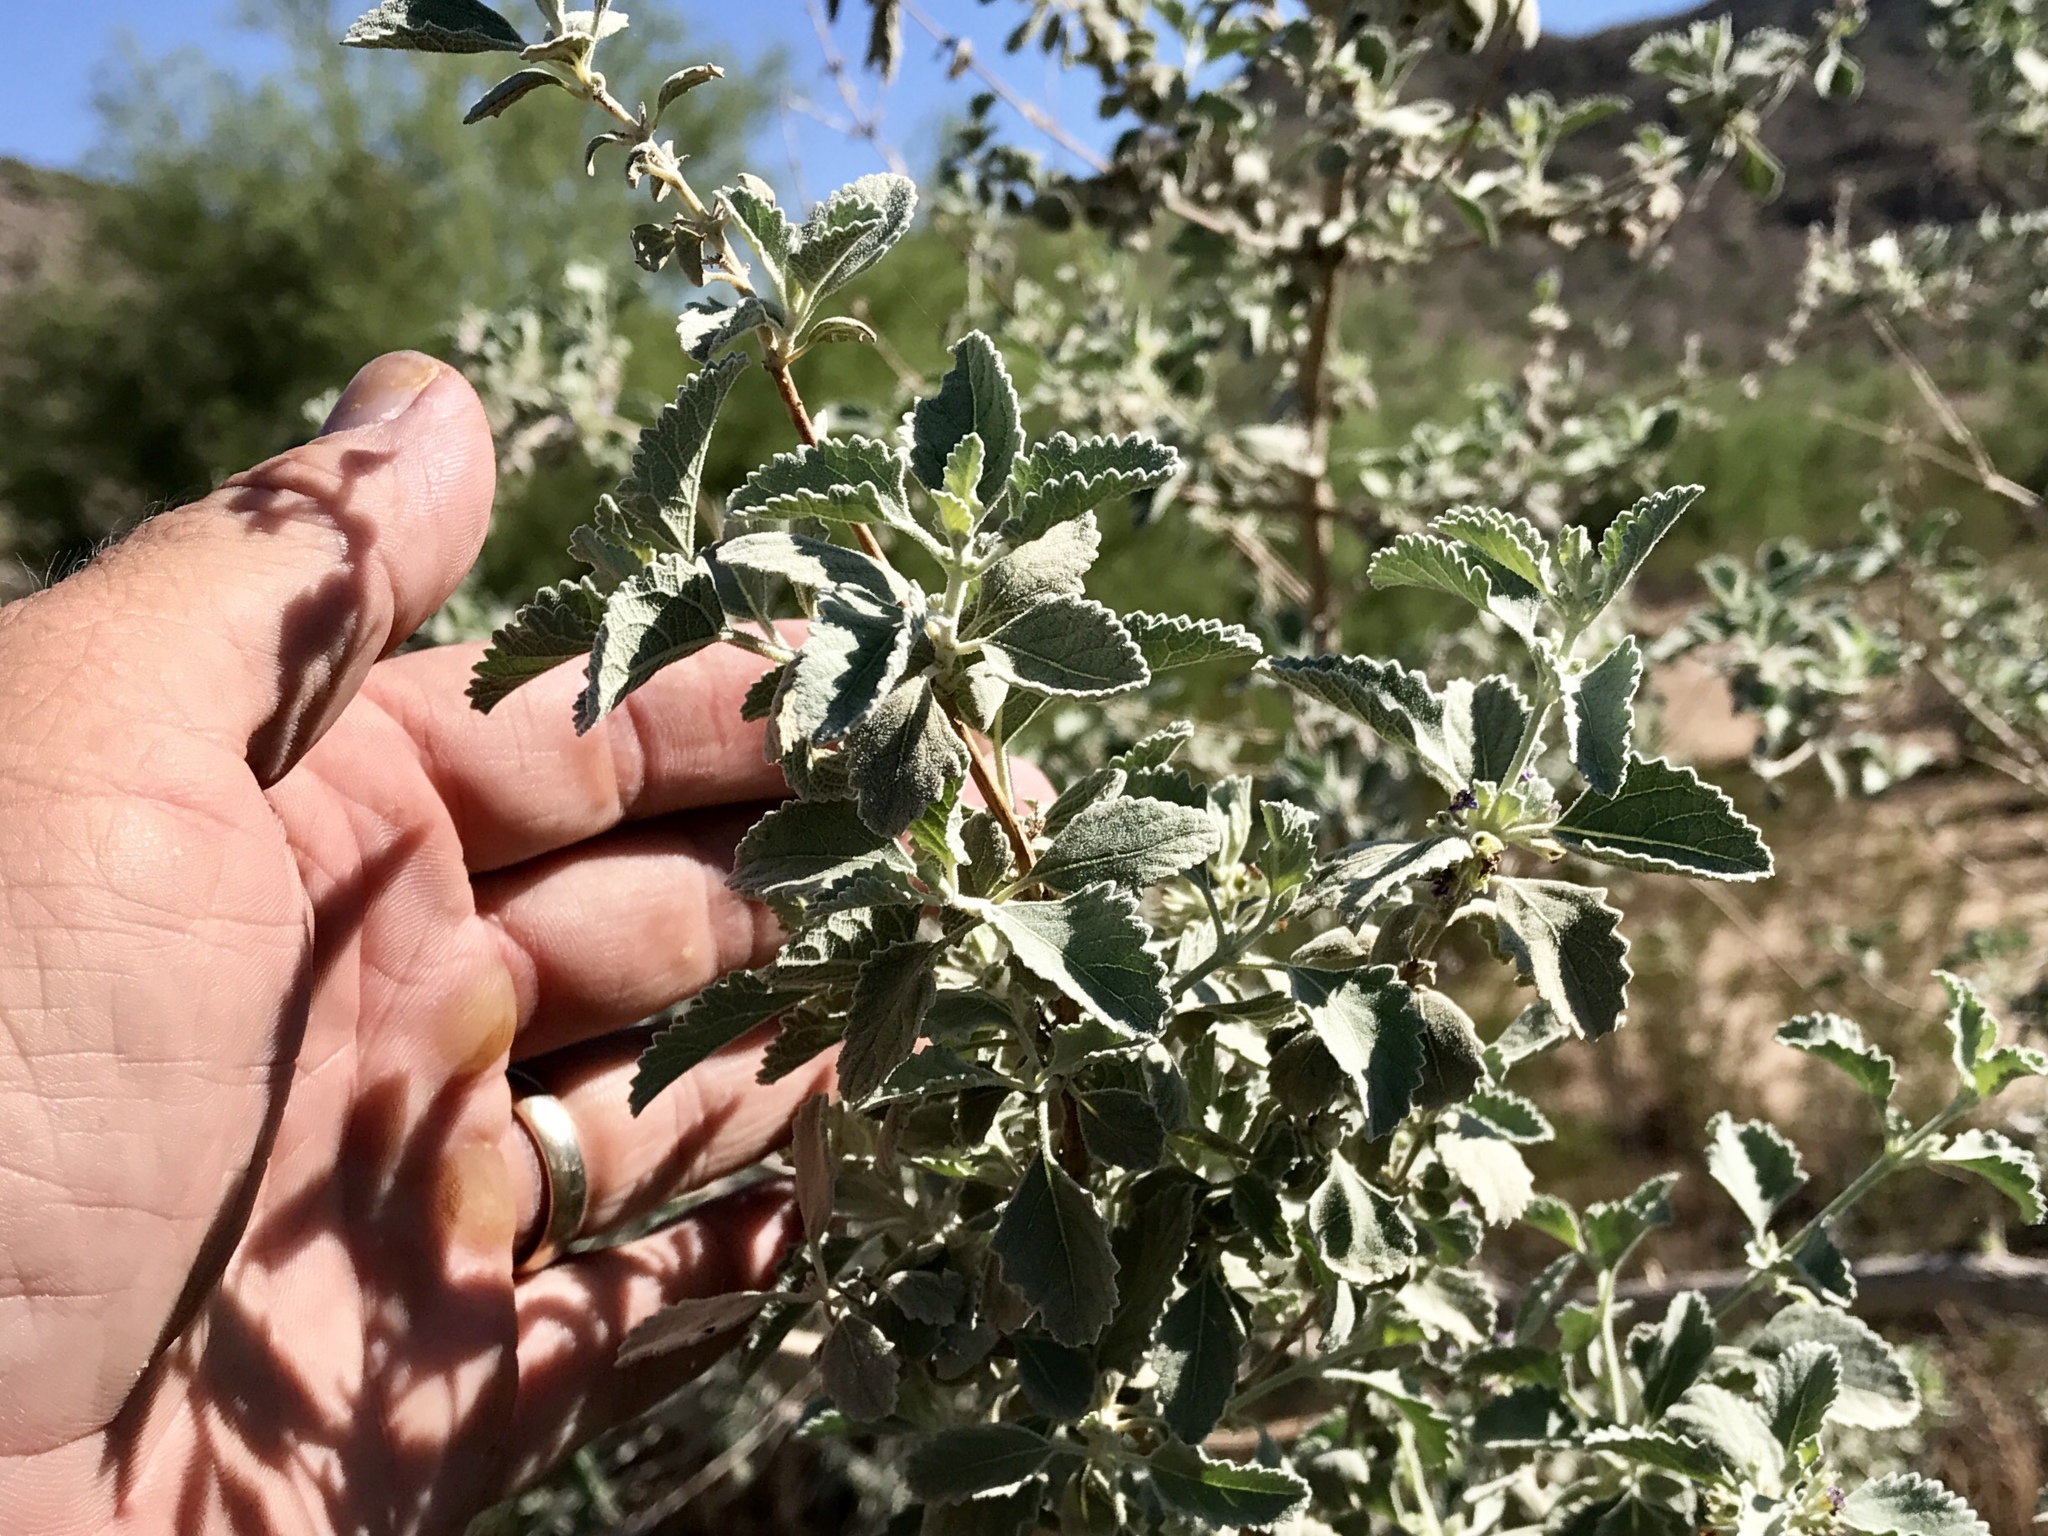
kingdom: Plantae
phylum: Tracheophyta
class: Magnoliopsida
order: Lamiales
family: Lamiaceae
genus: Condea
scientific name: Condea emoryi
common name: Chia
